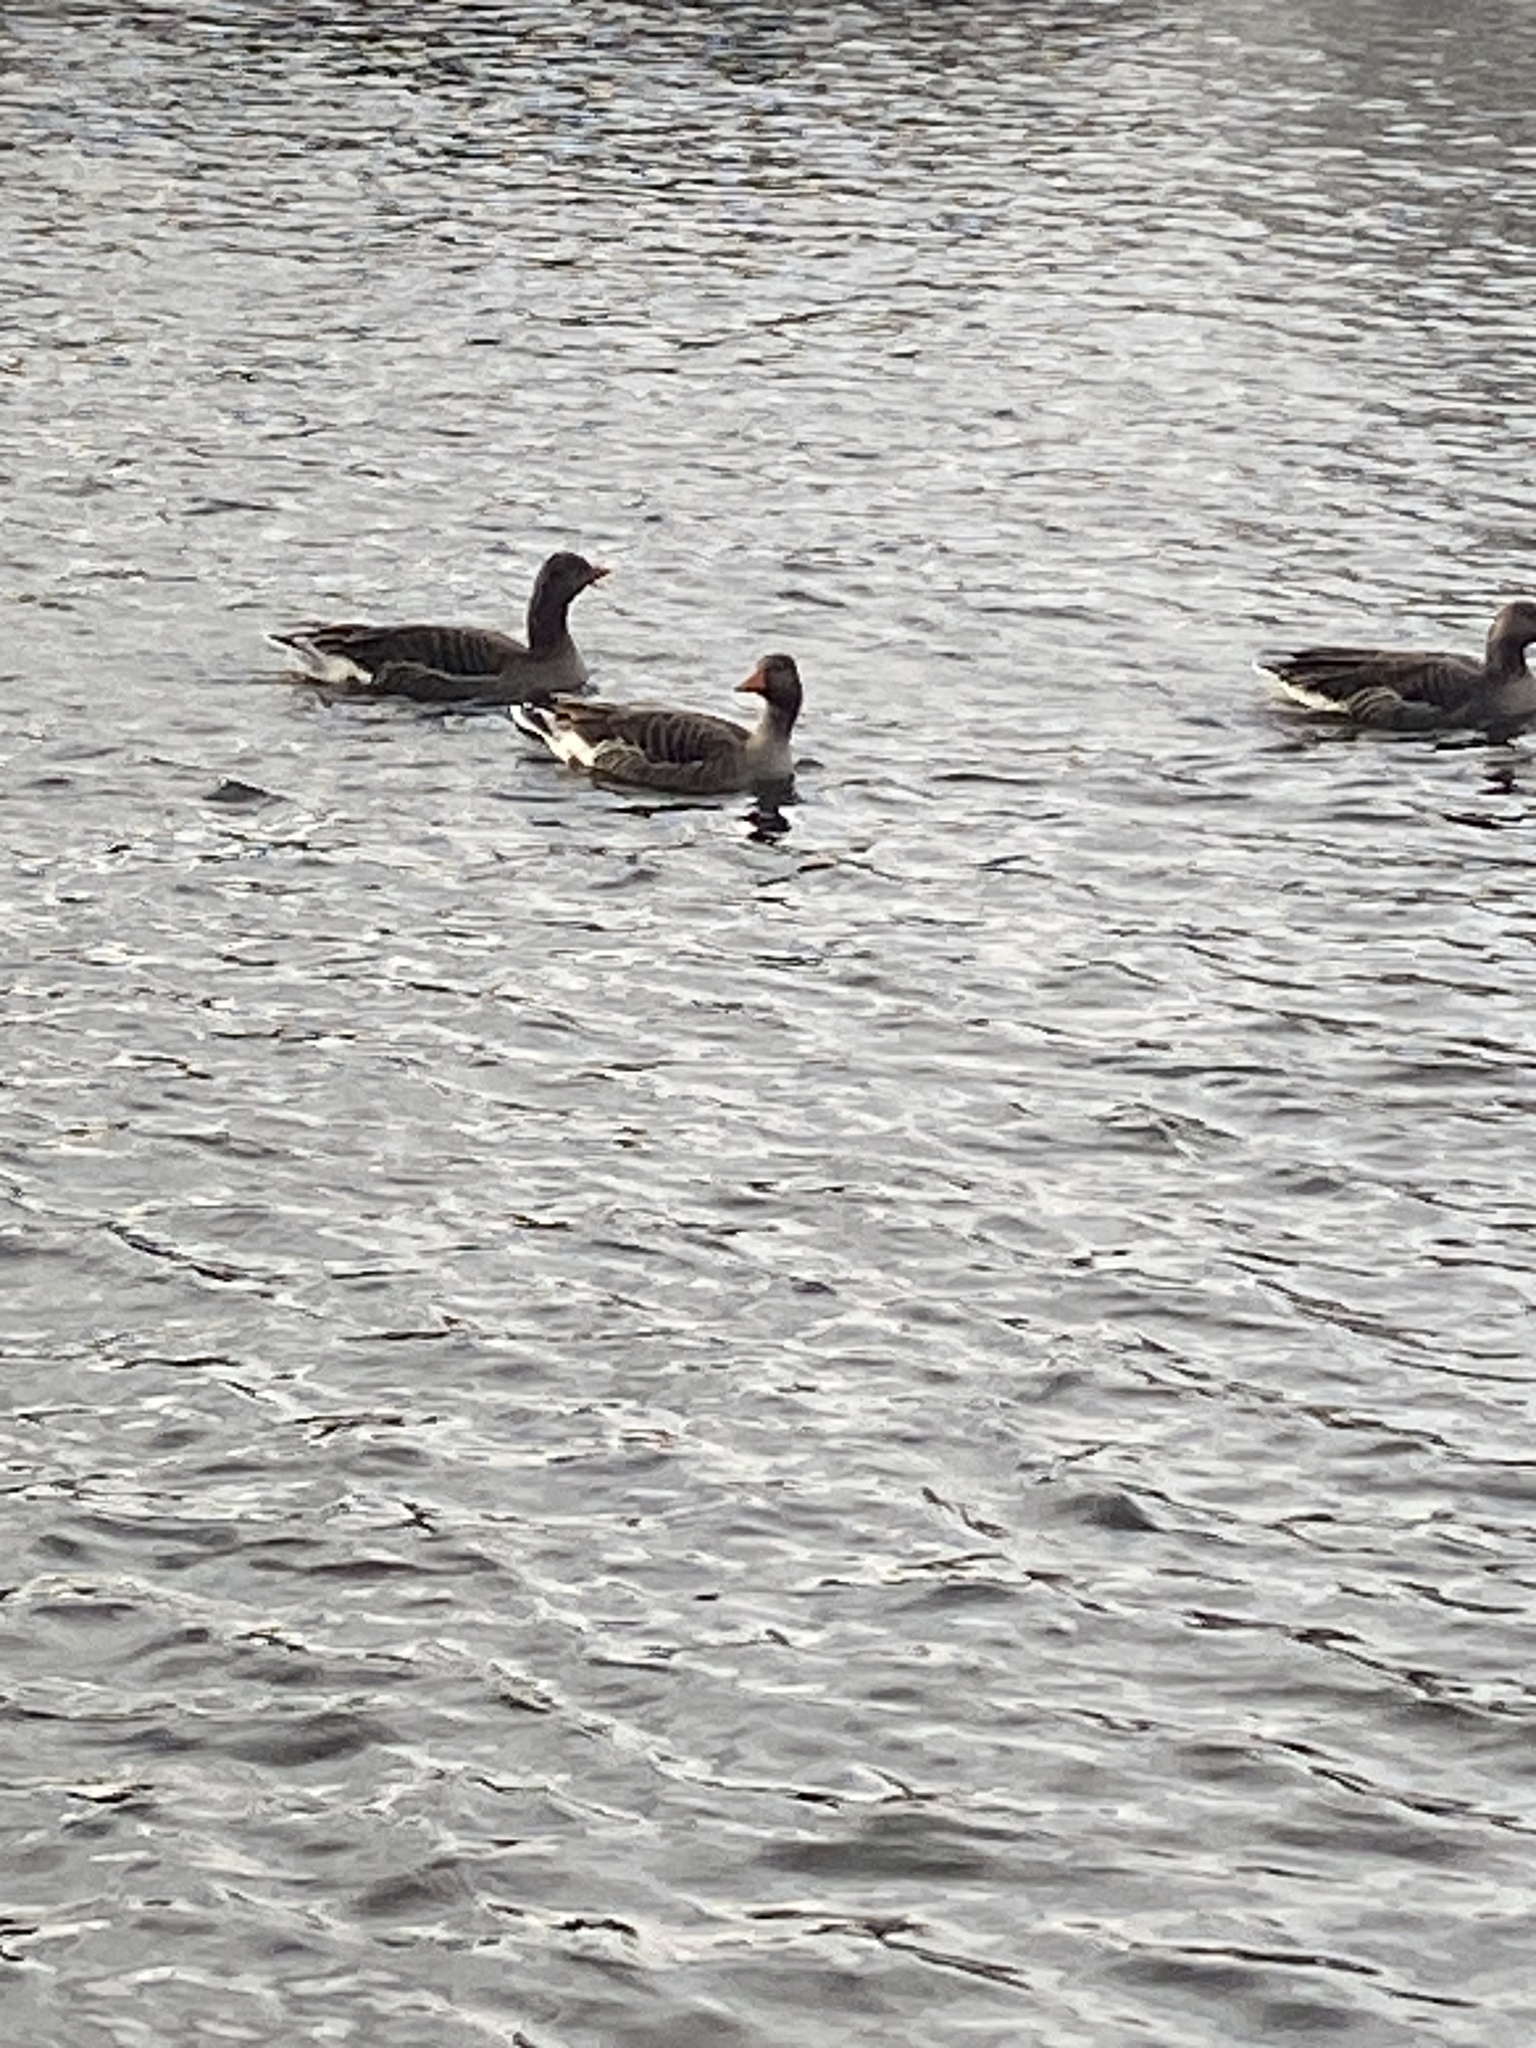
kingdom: Animalia
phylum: Chordata
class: Aves
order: Anseriformes
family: Anatidae
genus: Anser
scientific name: Anser anser
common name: Greylag goose
